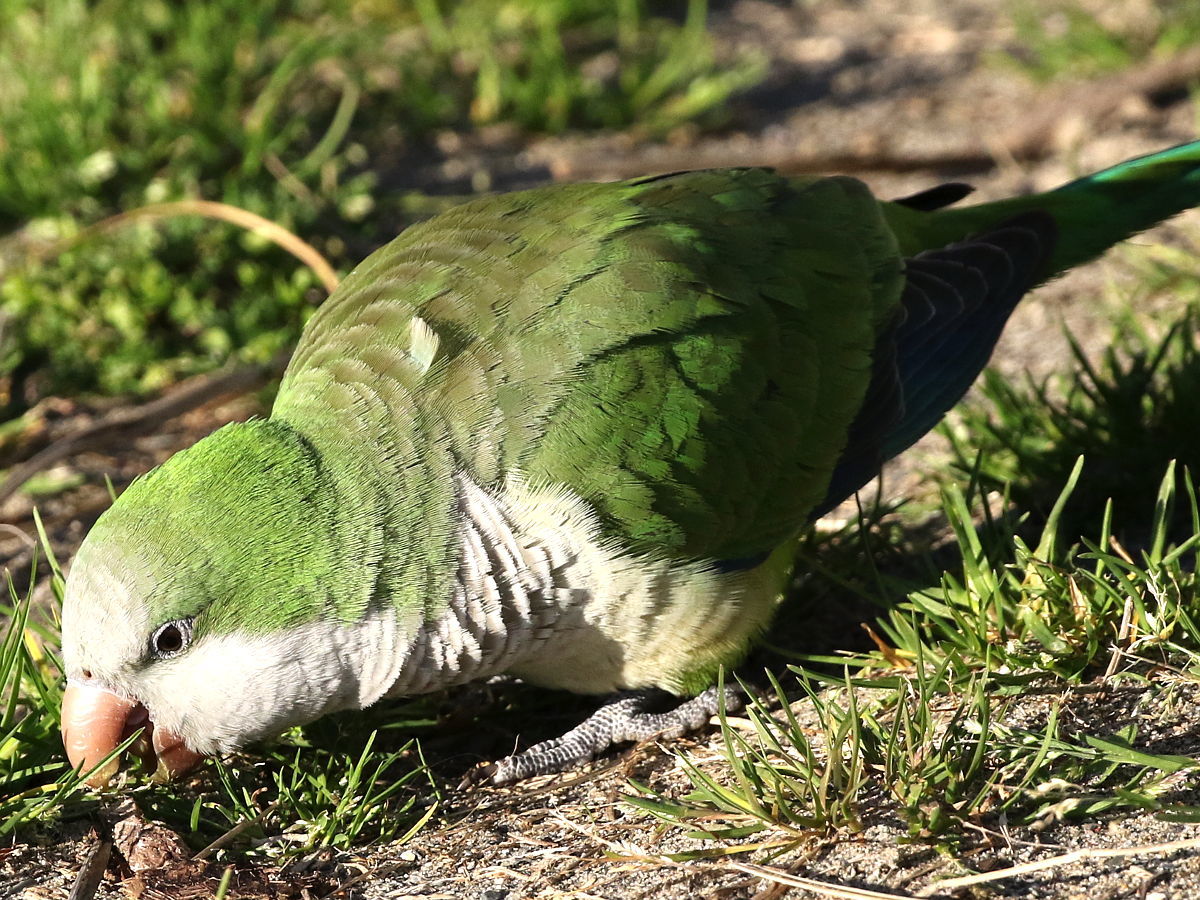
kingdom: Animalia
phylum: Chordata
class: Aves
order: Psittaciformes
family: Psittacidae
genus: Myiopsitta
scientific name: Myiopsitta monachus
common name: Monk parakeet
